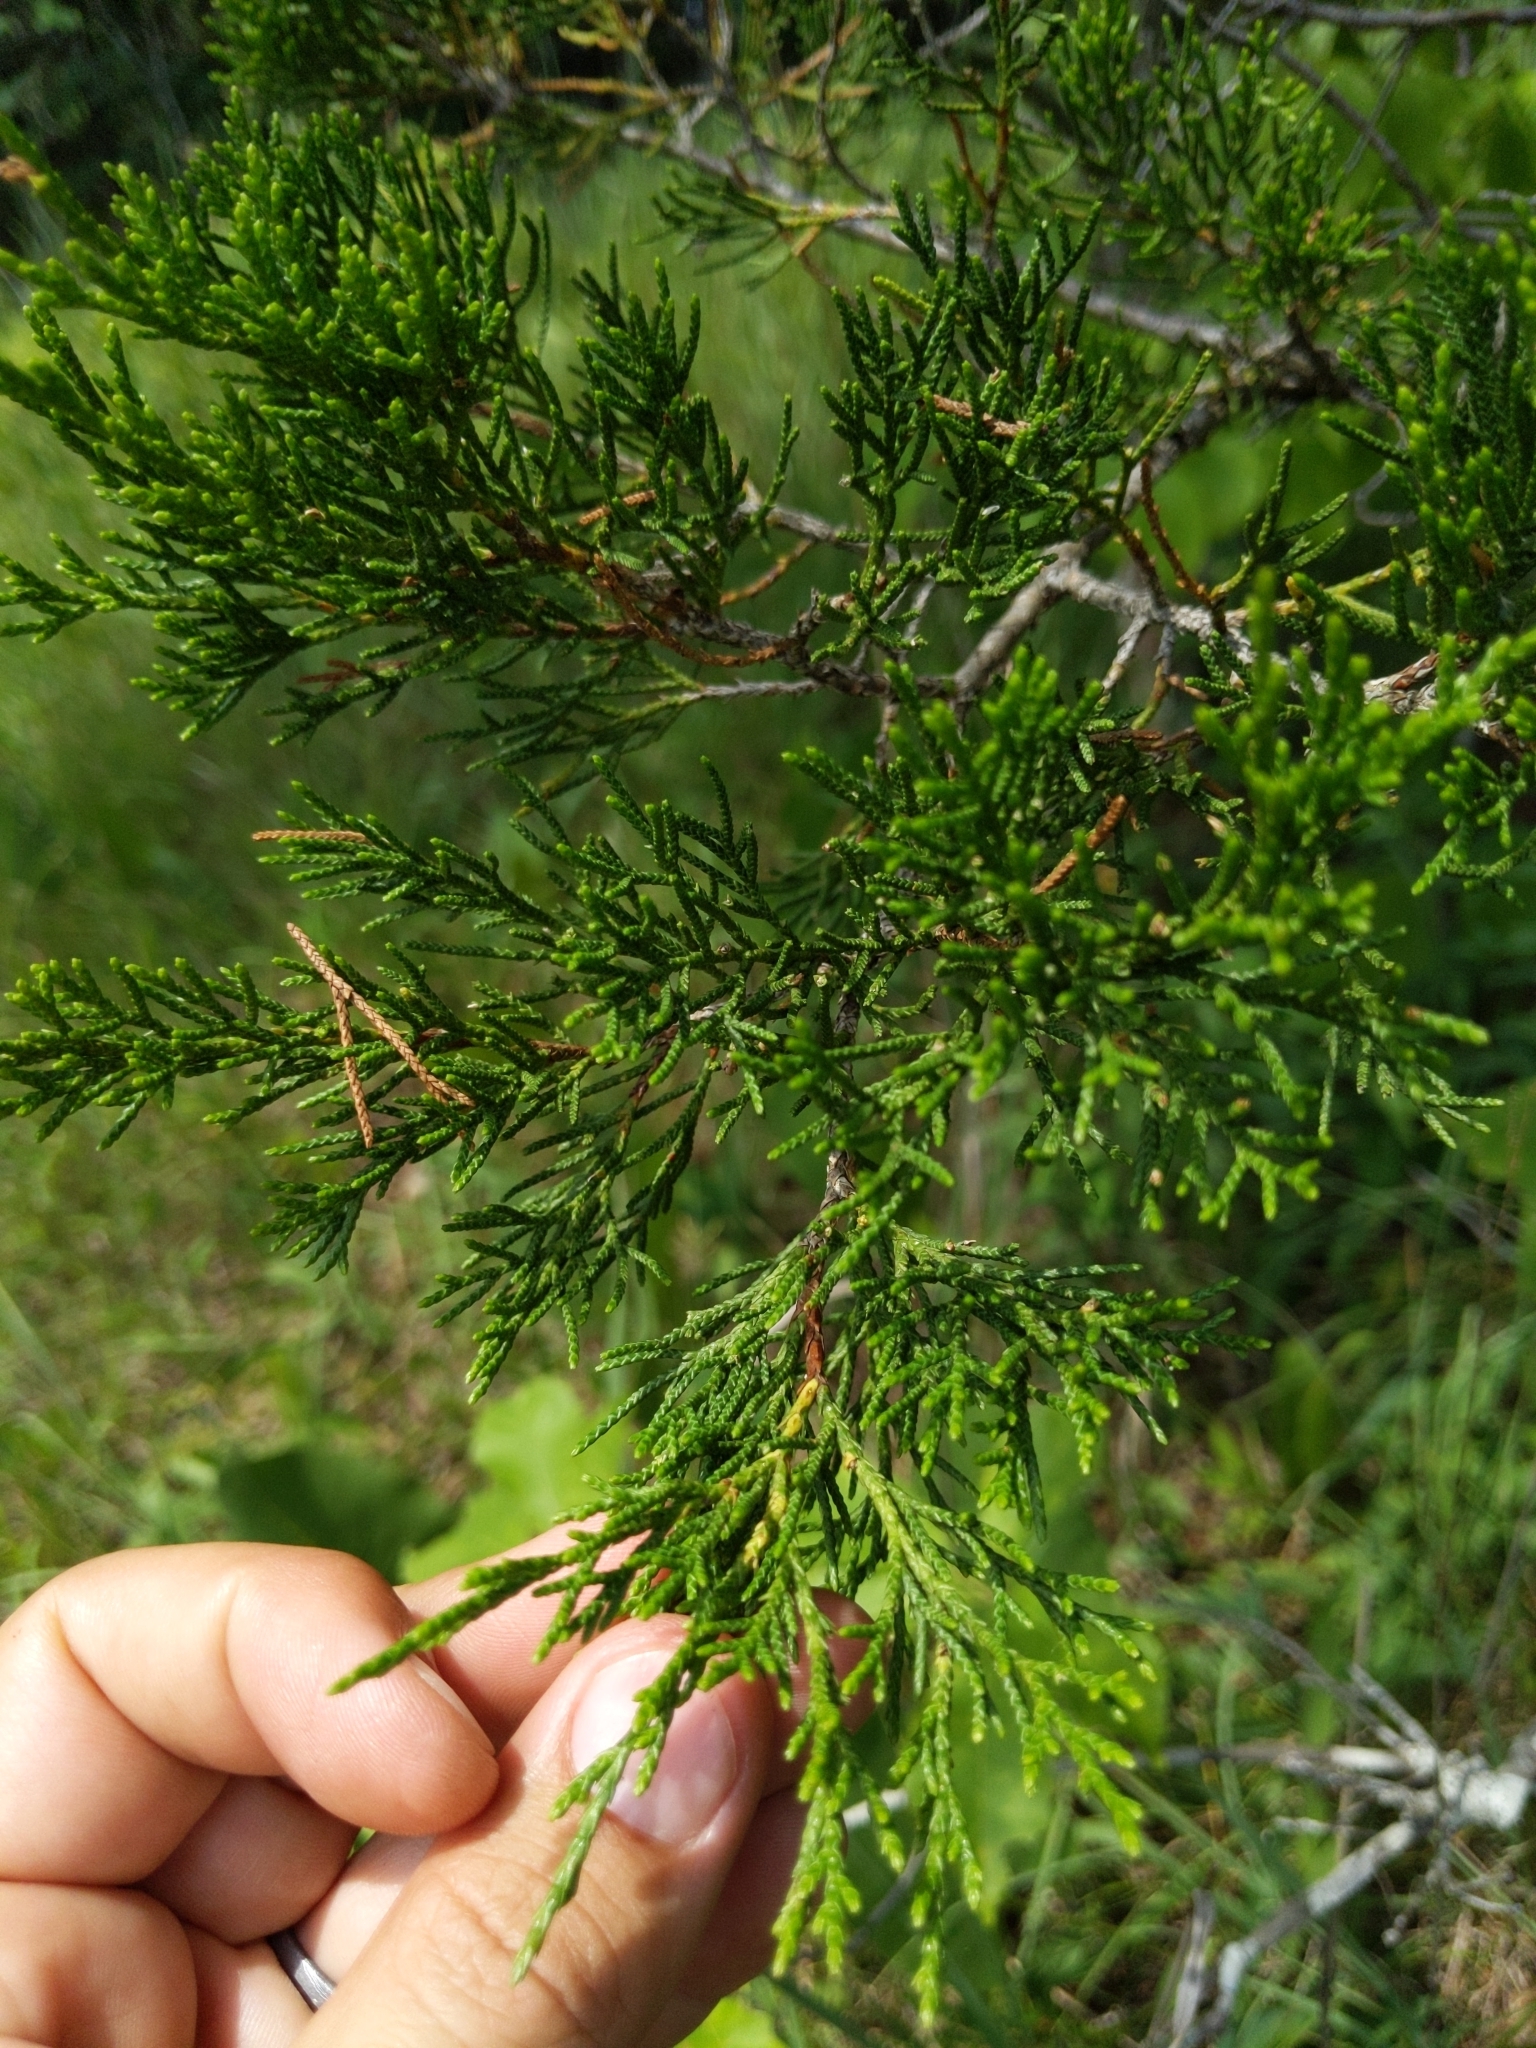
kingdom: Plantae
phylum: Tracheophyta
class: Pinopsida
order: Pinales
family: Cupressaceae
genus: Juniperus
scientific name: Juniperus virginiana
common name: Red juniper
